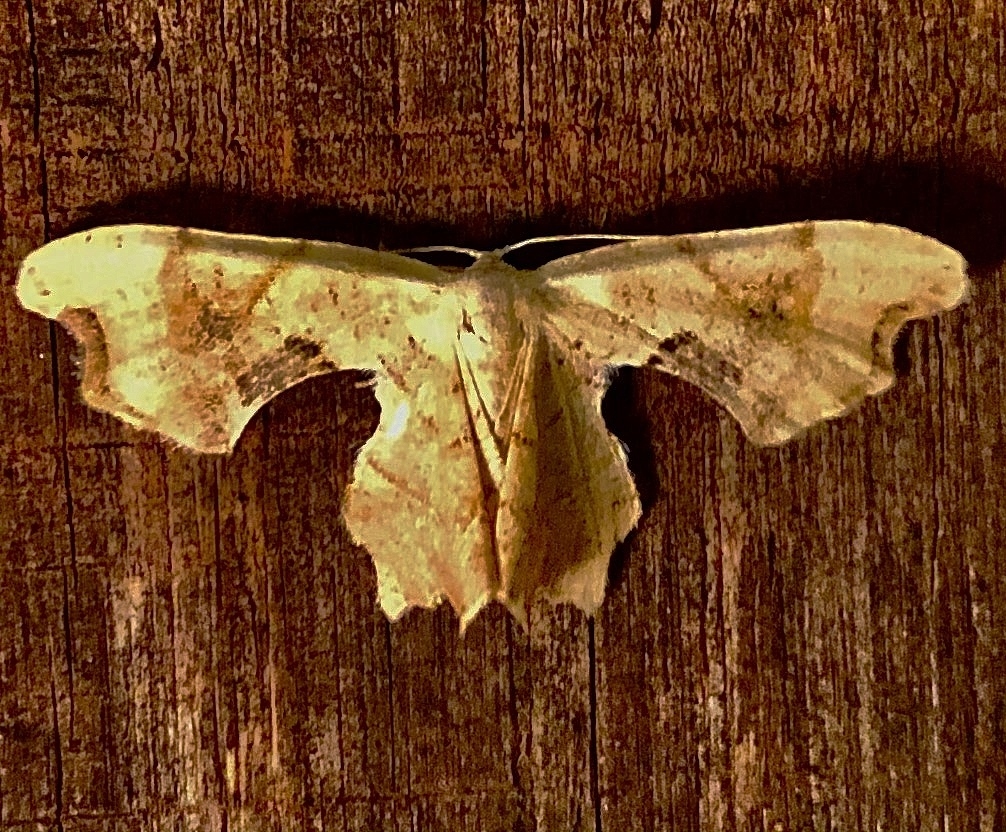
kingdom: Animalia
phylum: Arthropoda
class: Insecta
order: Lepidoptera
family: Uraniidae
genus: Epiplema
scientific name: Epiplema Calledapteryx dryopterata
